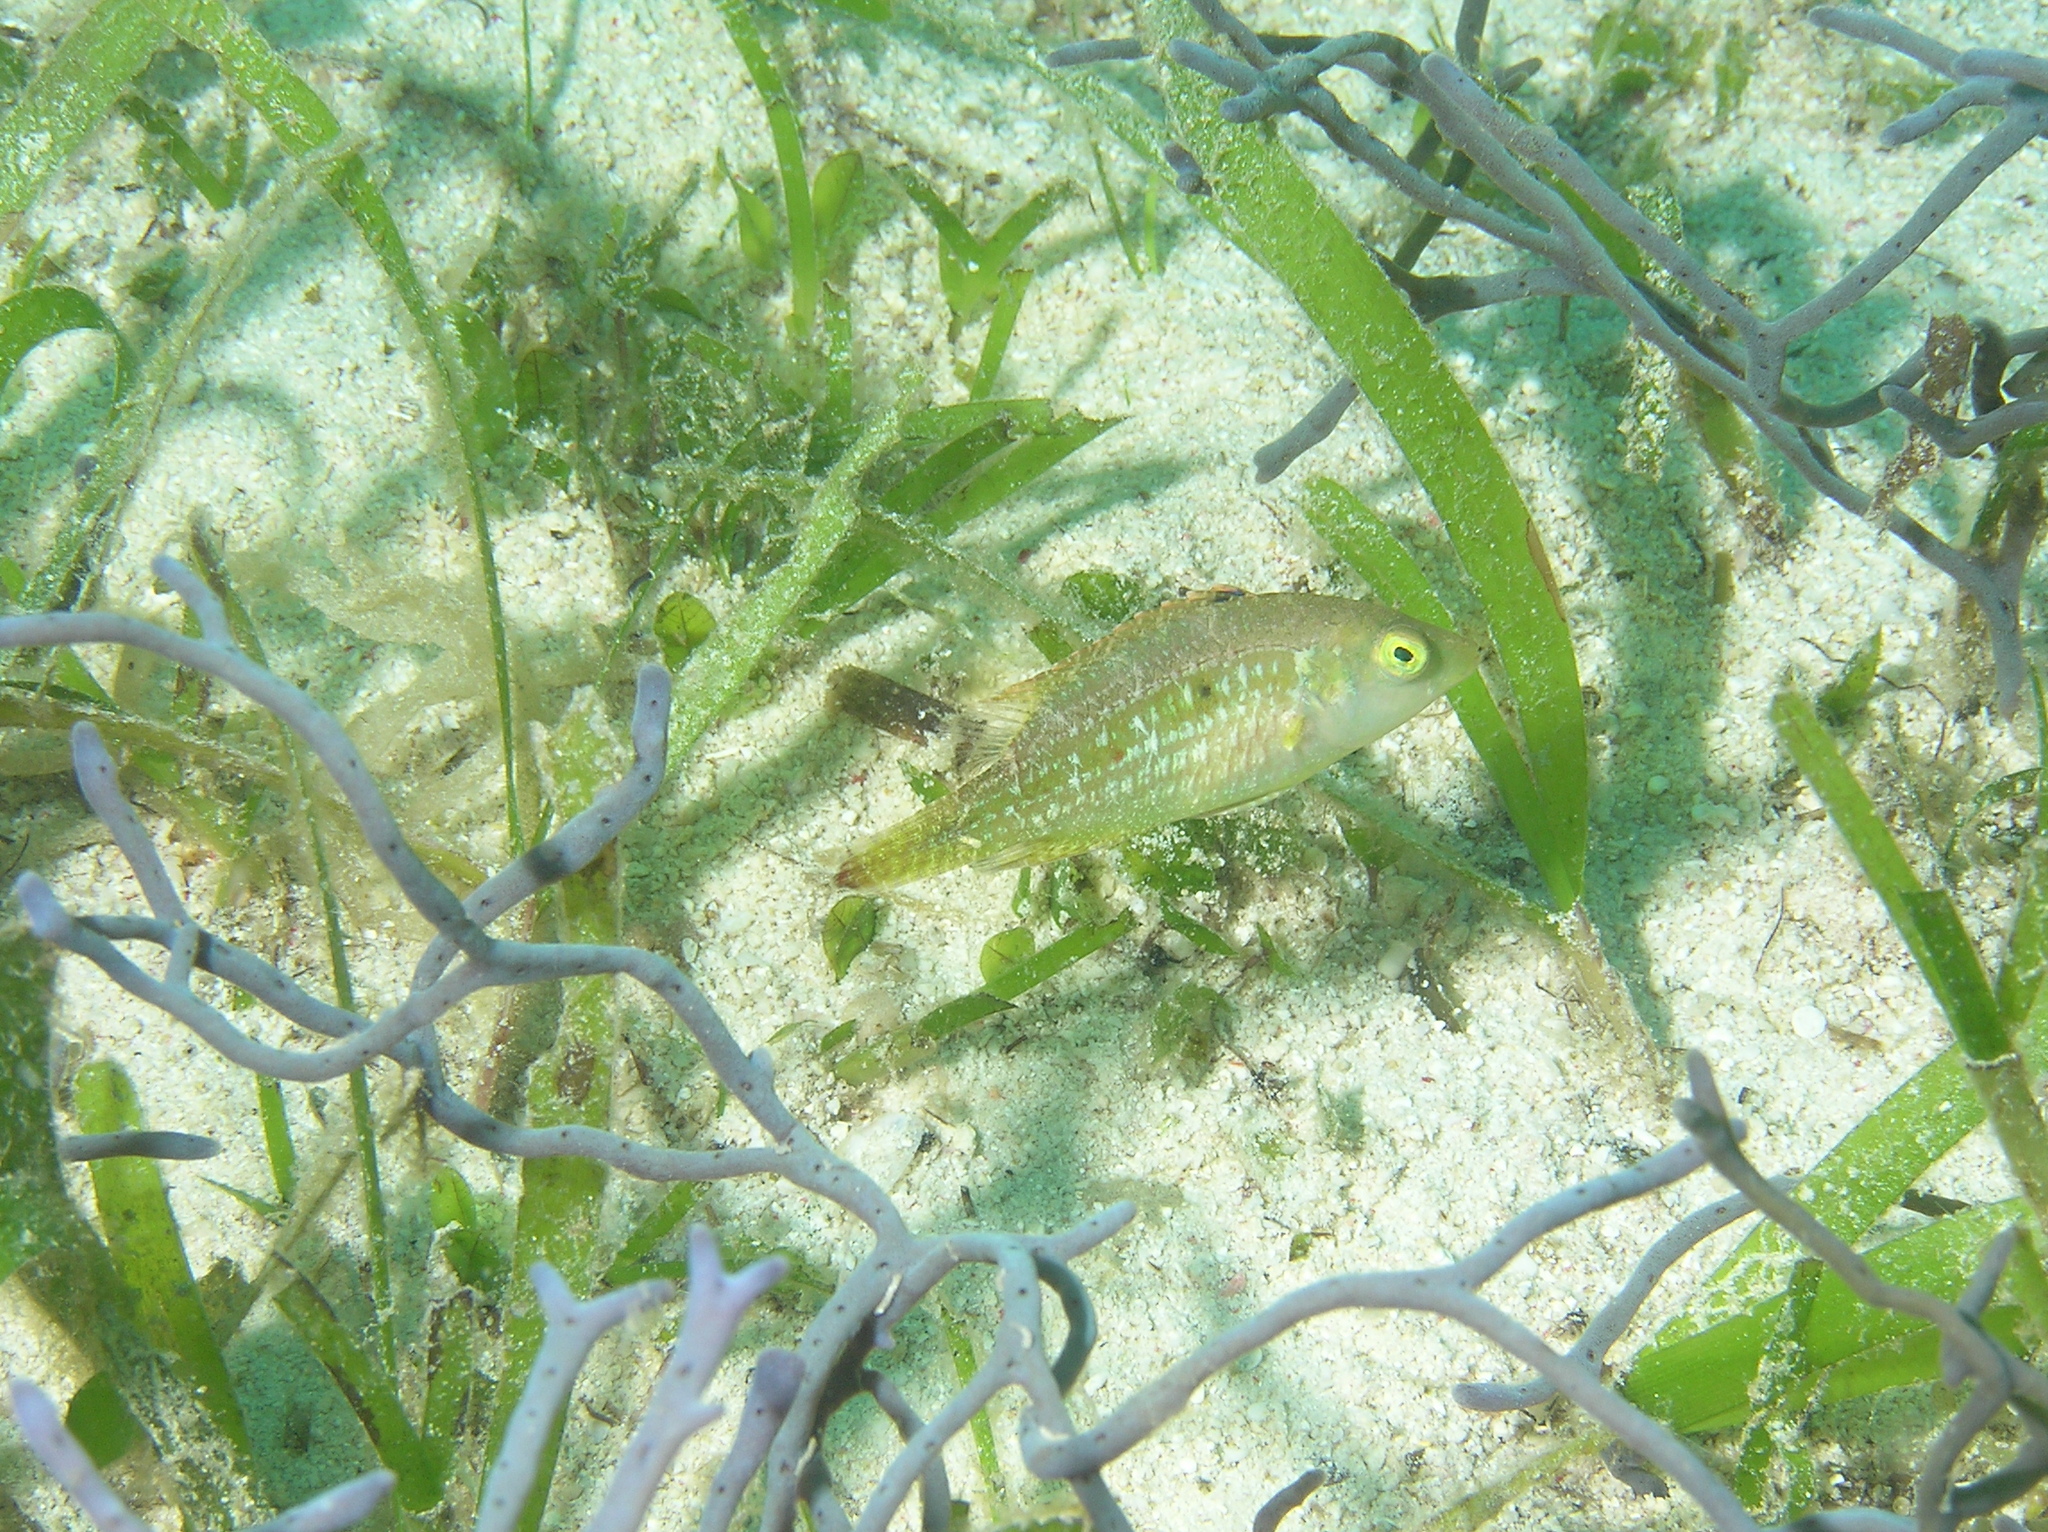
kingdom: Animalia
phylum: Chordata
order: Perciformes
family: Labridae
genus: Oxycheilinus
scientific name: Oxycheilinus bimaculatus
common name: Comettailed wrasse
